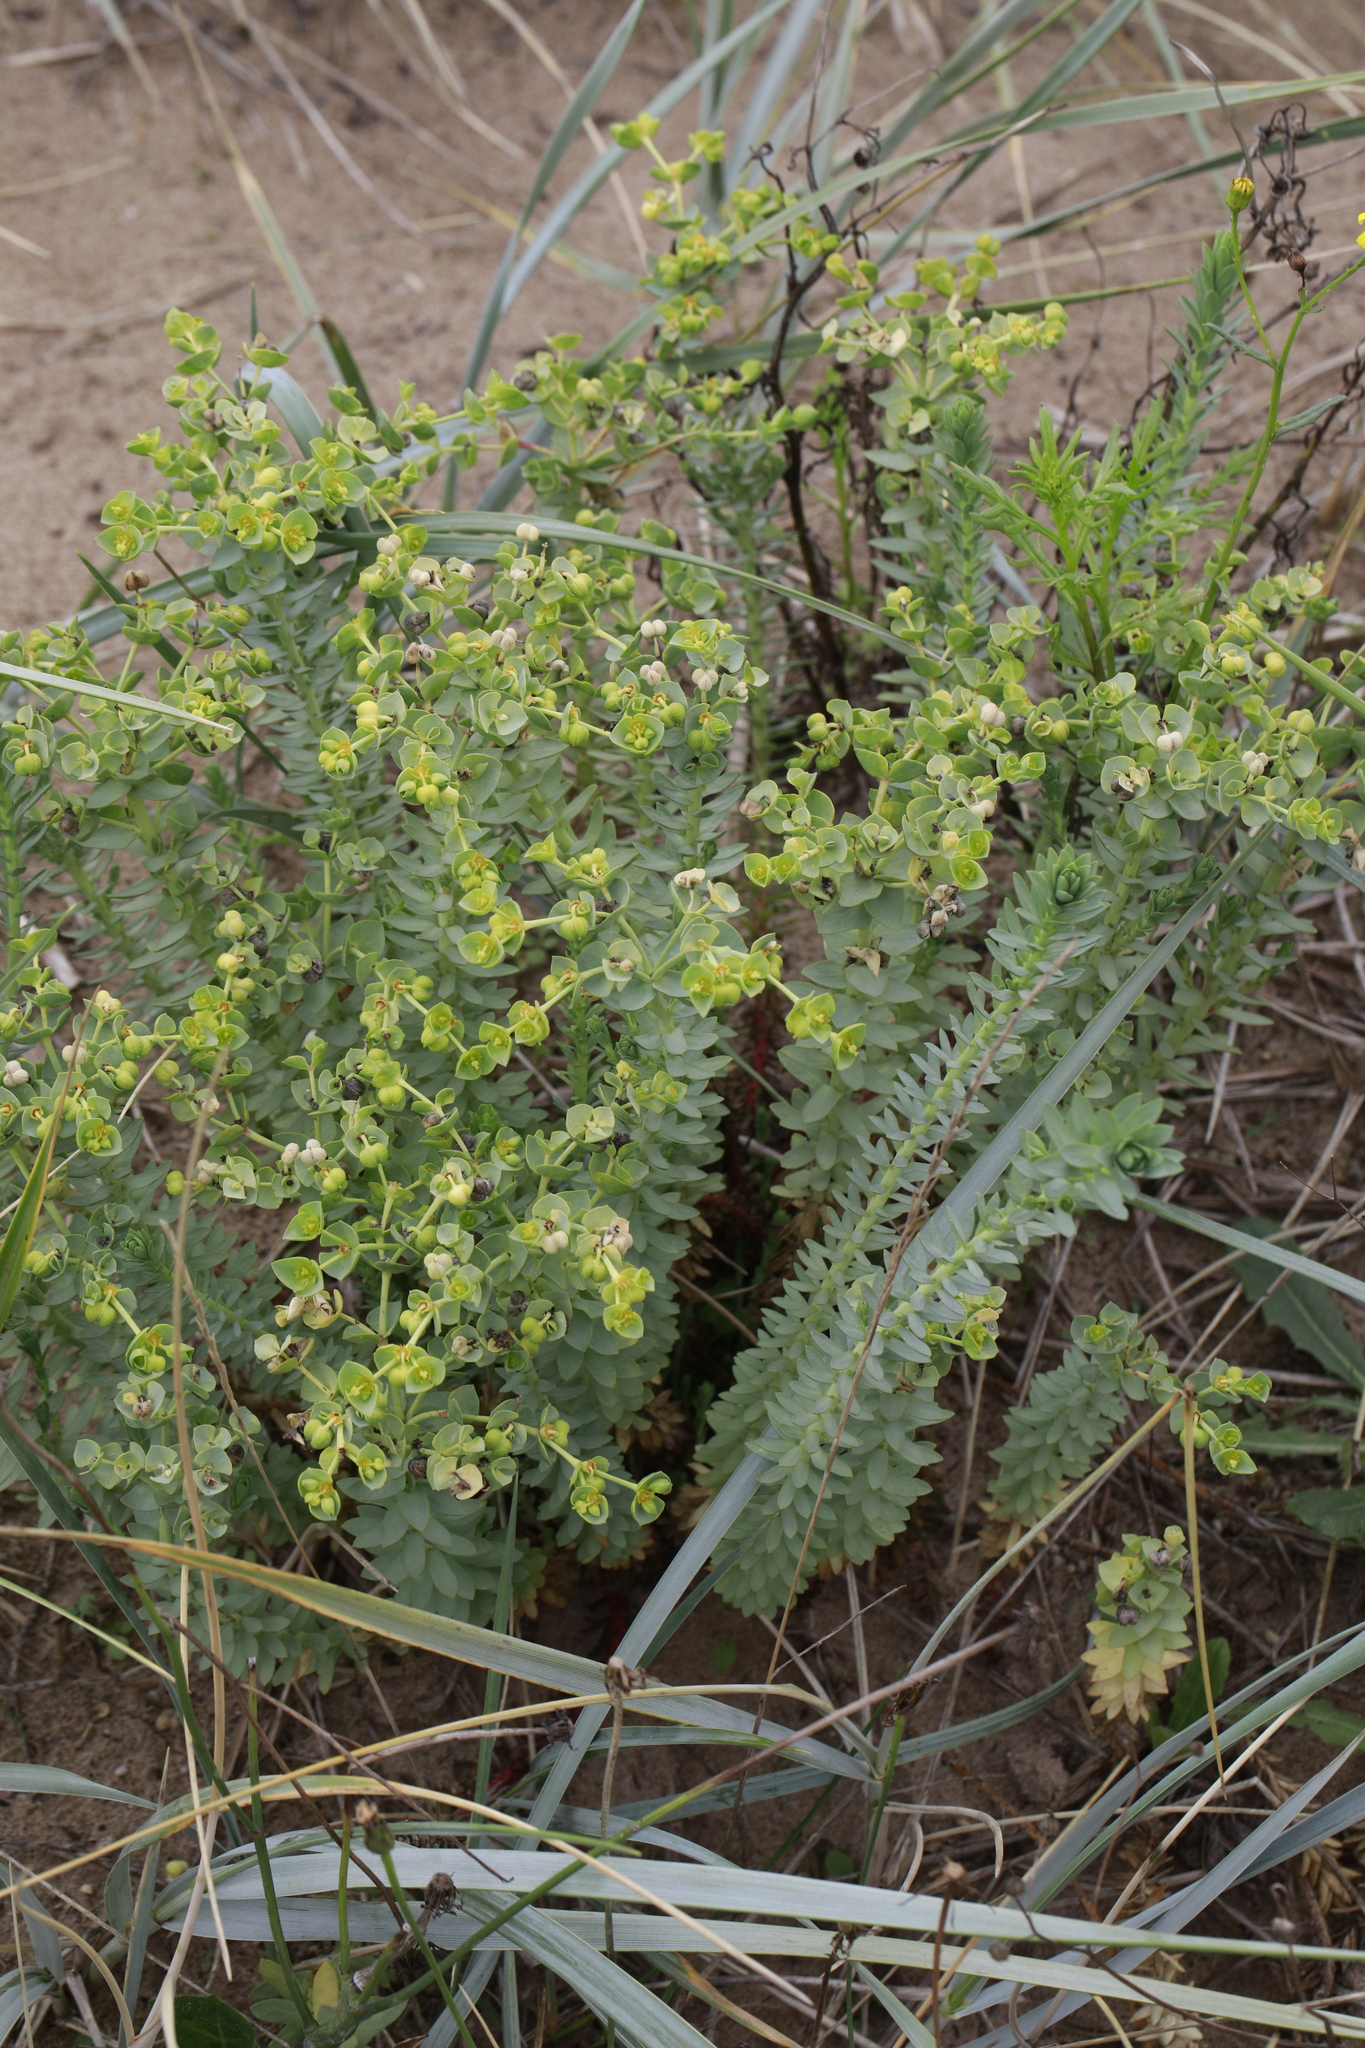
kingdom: Plantae
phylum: Tracheophyta
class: Magnoliopsida
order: Malpighiales
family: Euphorbiaceae
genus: Euphorbia
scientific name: Euphorbia paralias
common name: Sea spurge
